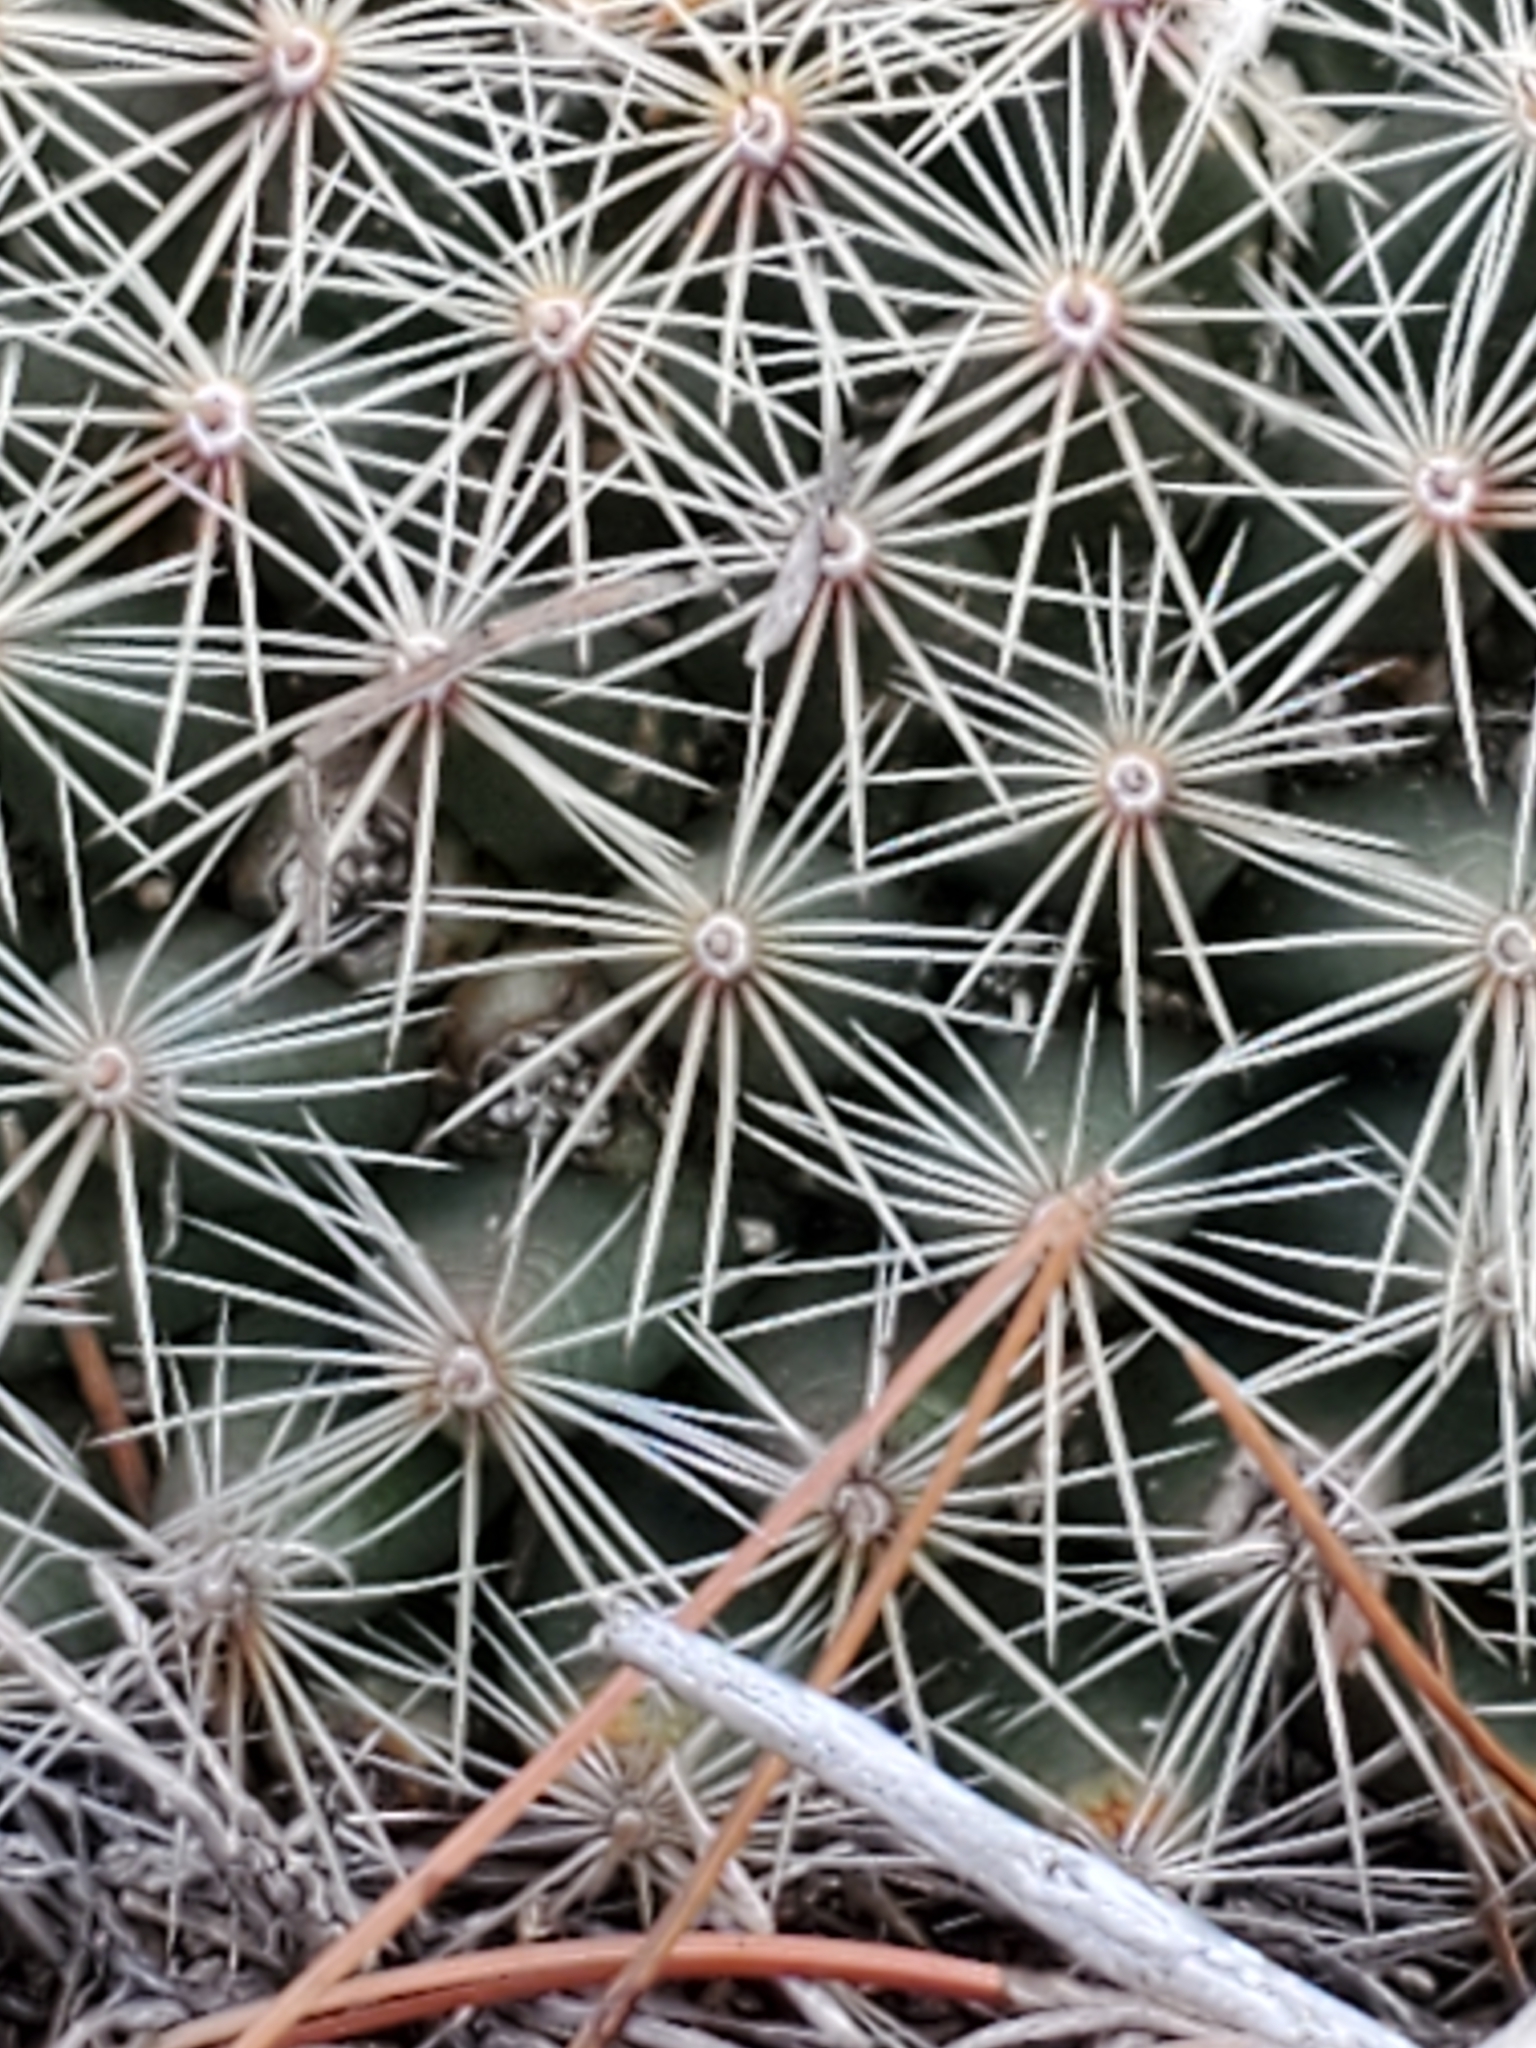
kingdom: Plantae
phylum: Tracheophyta
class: Magnoliopsida
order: Caryophyllales
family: Cactaceae
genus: Mammillaria
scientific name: Mammillaria heyderi
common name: Little nipple cactus
